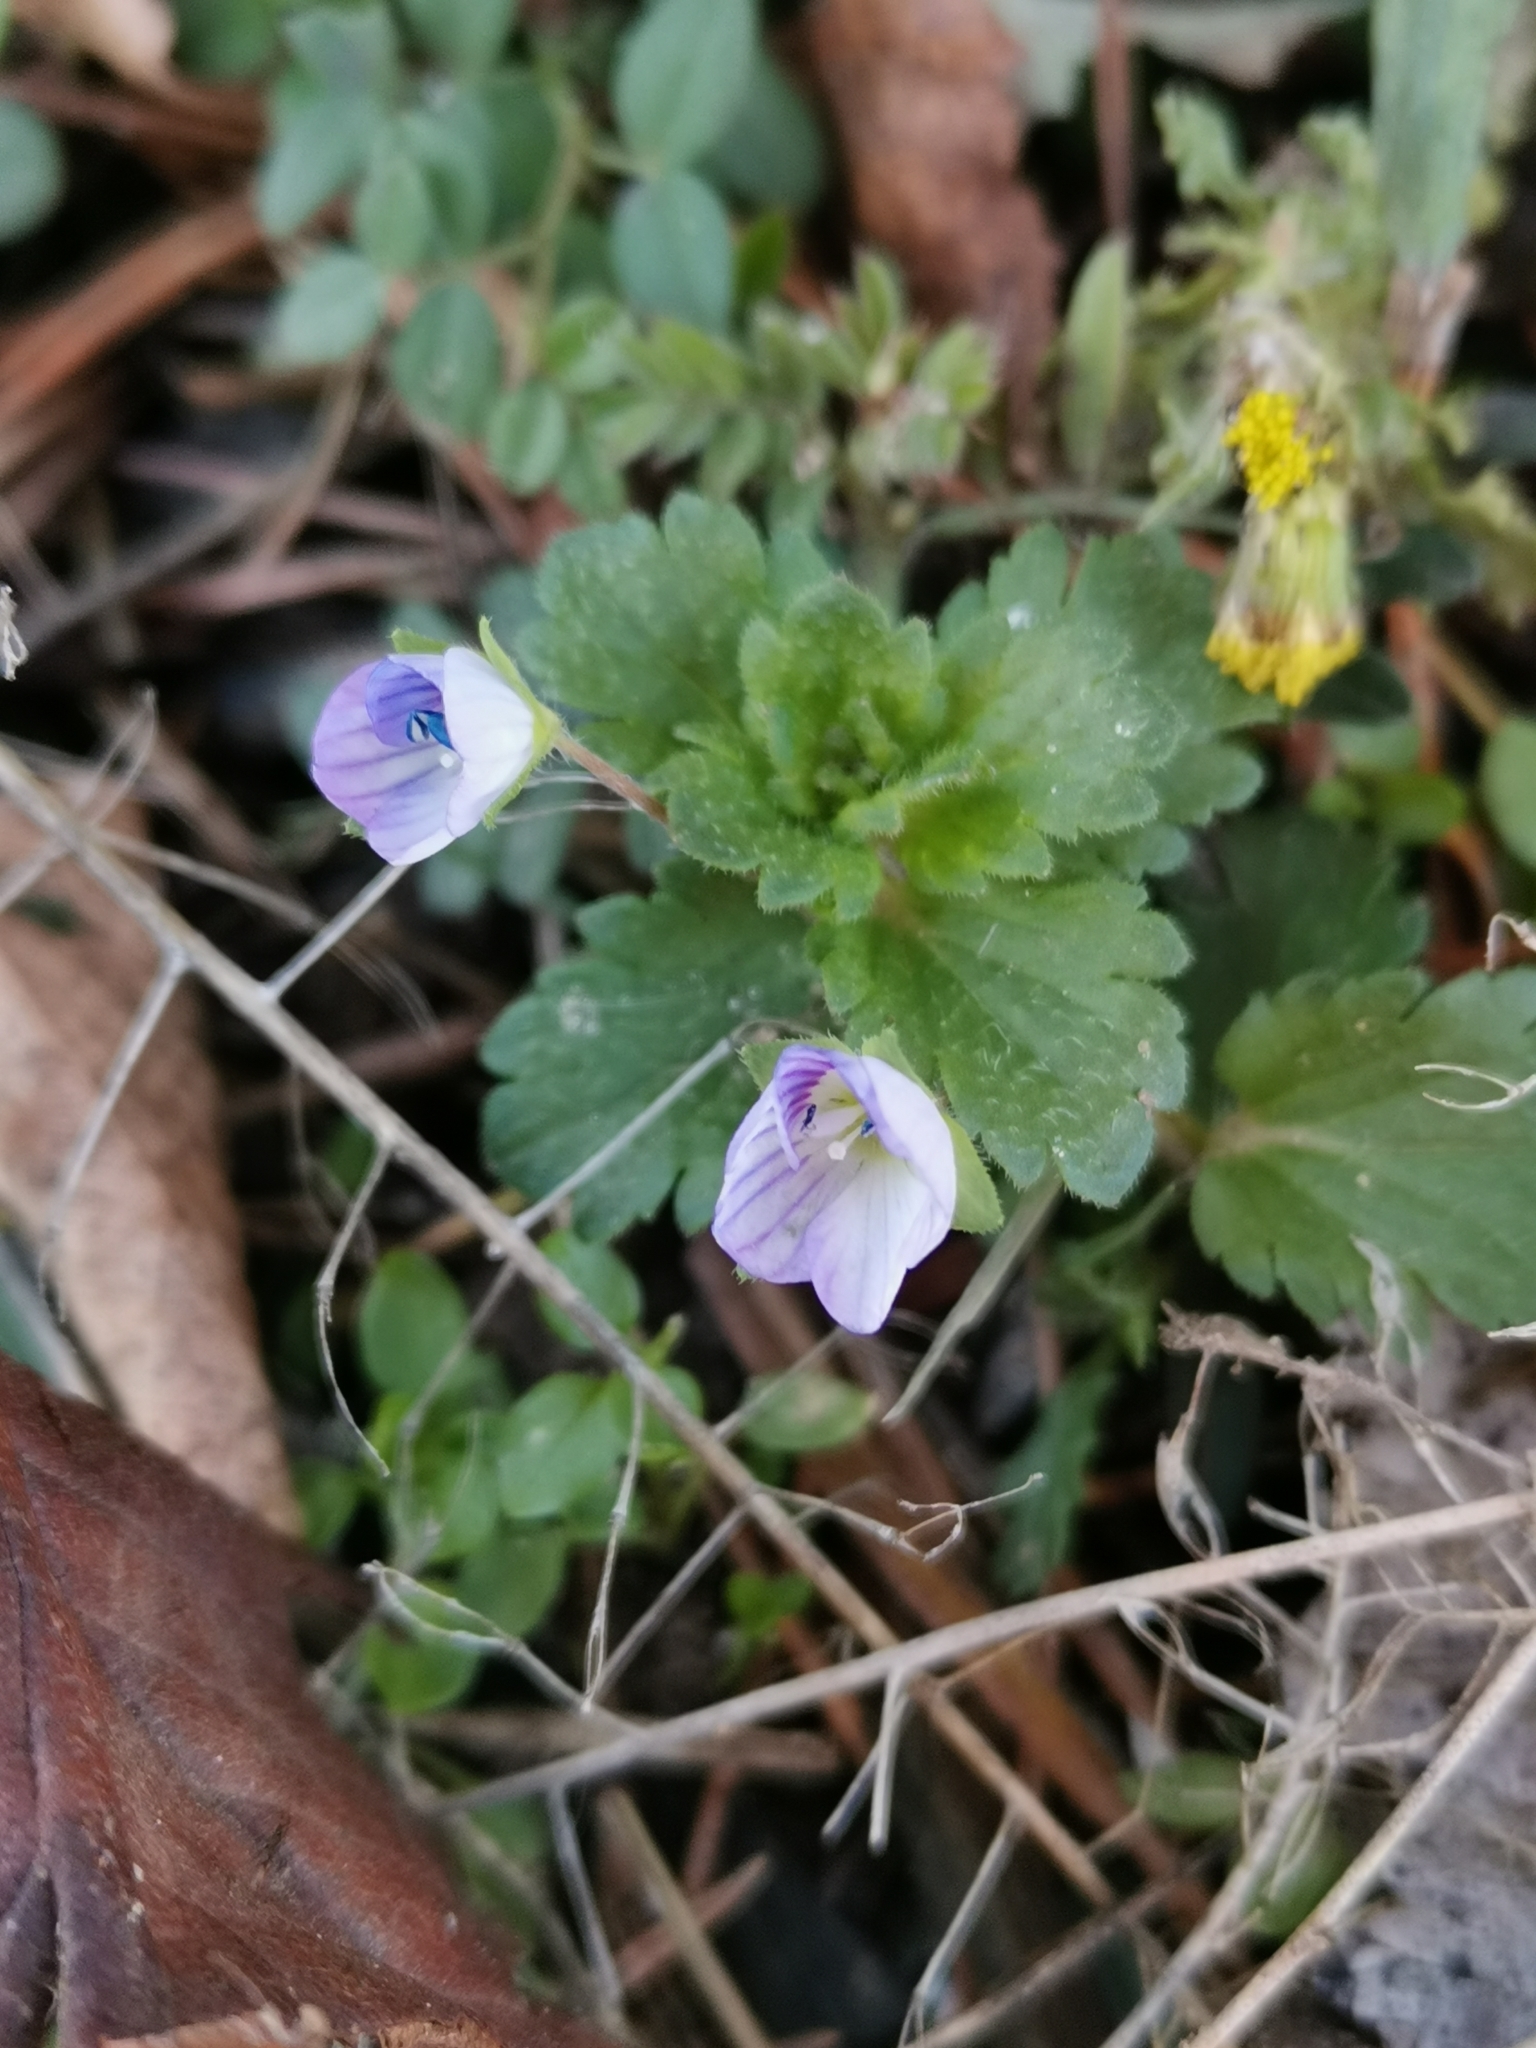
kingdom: Plantae
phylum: Tracheophyta
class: Magnoliopsida
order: Lamiales
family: Plantaginaceae
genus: Veronica
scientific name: Veronica persica
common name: Common field-speedwell
